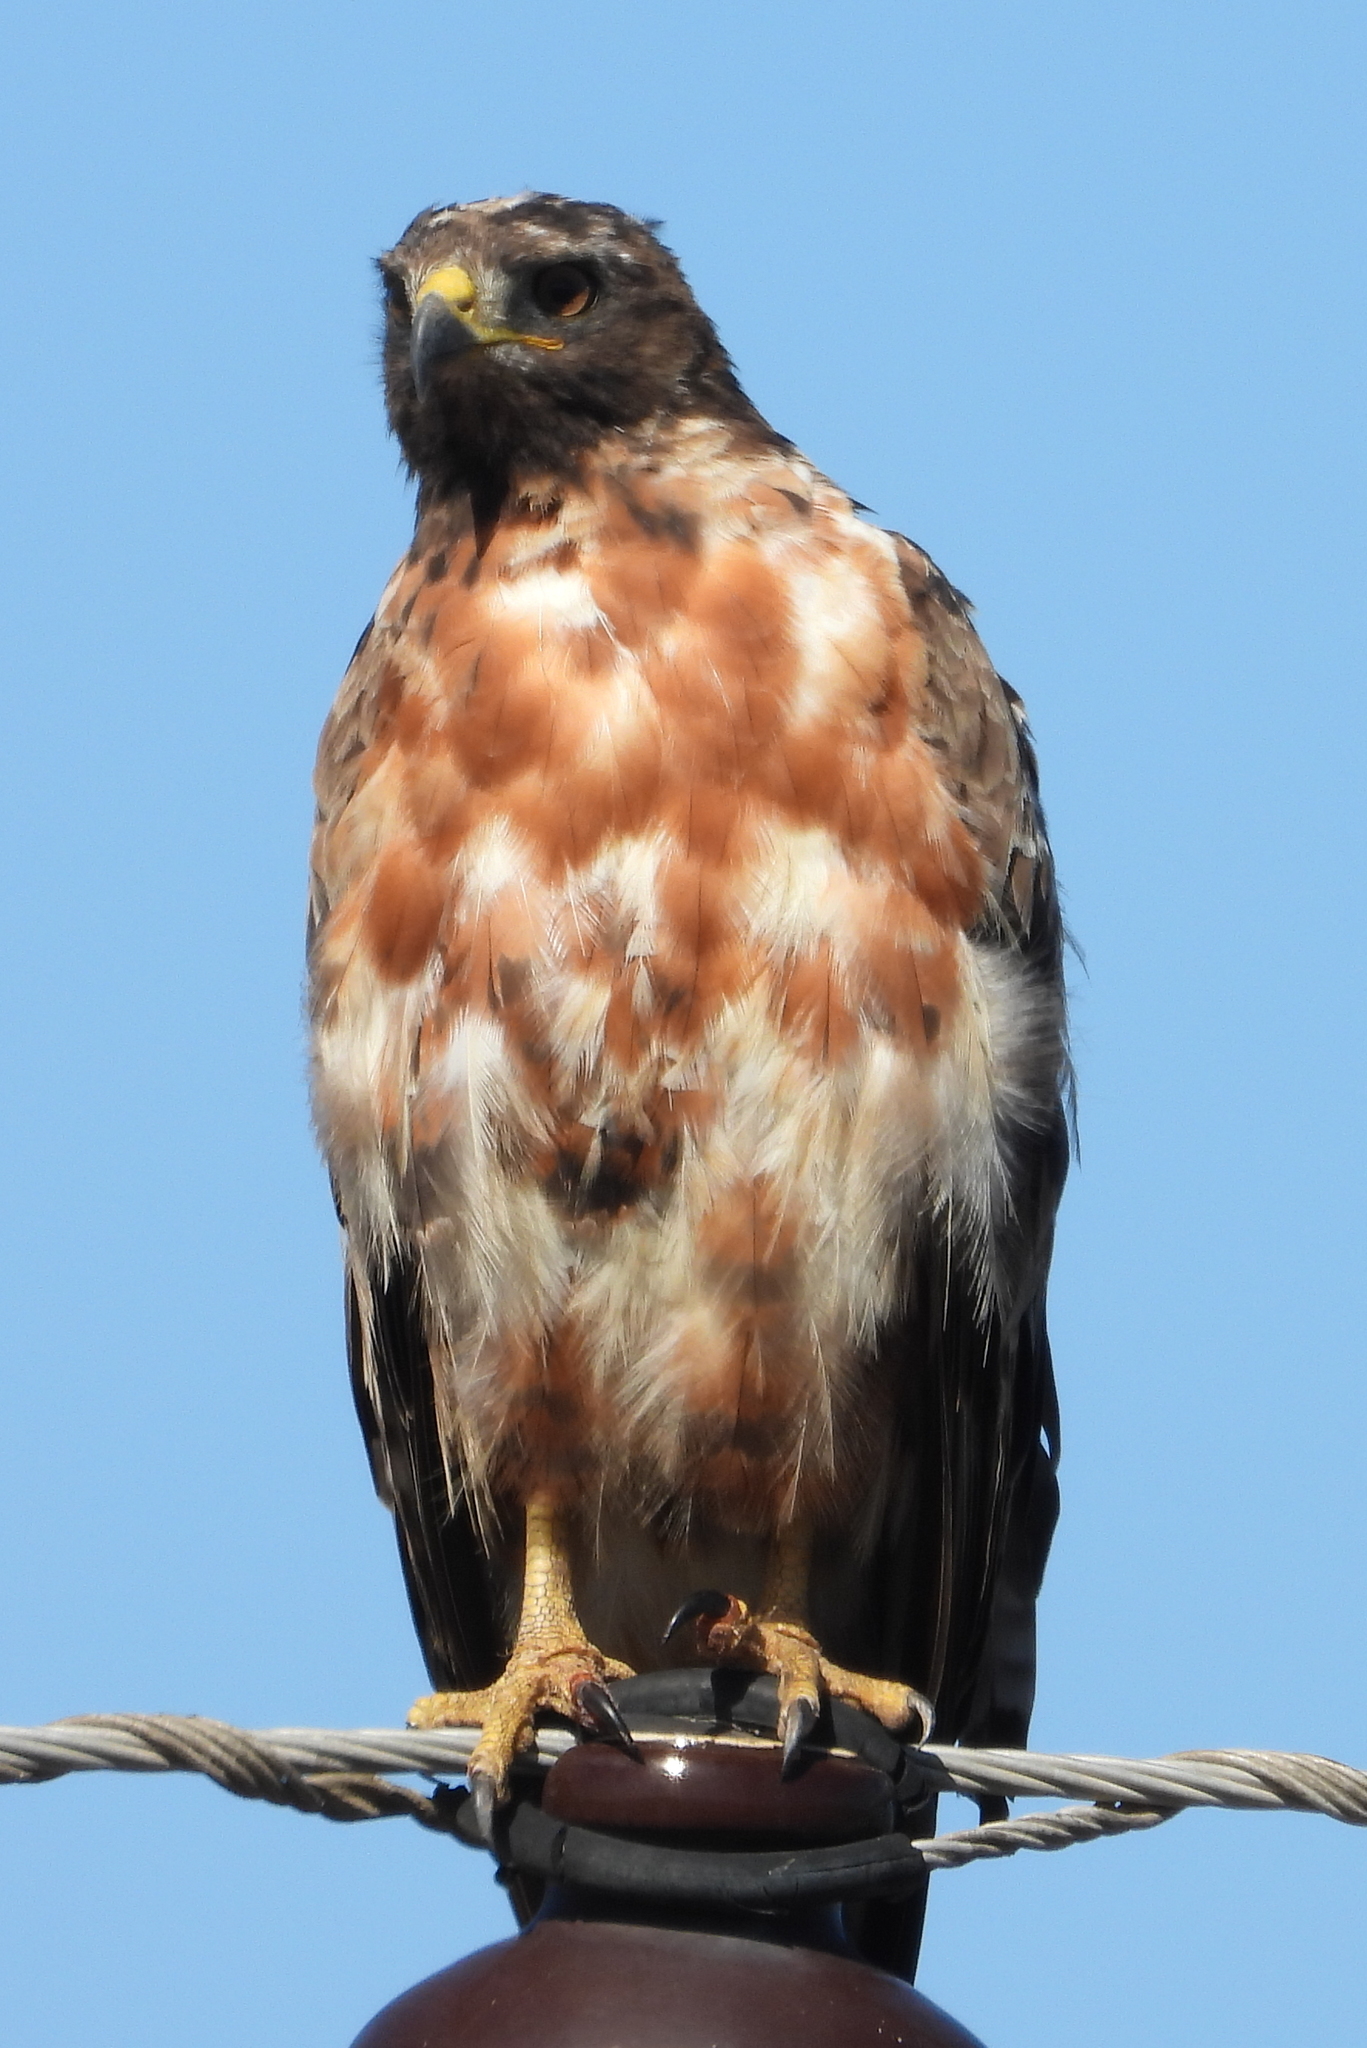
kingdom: Animalia
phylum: Chordata
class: Aves
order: Accipitriformes
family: Accipitridae
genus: Buteo
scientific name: Buteo rufofuscus
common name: Jackal buzzard
